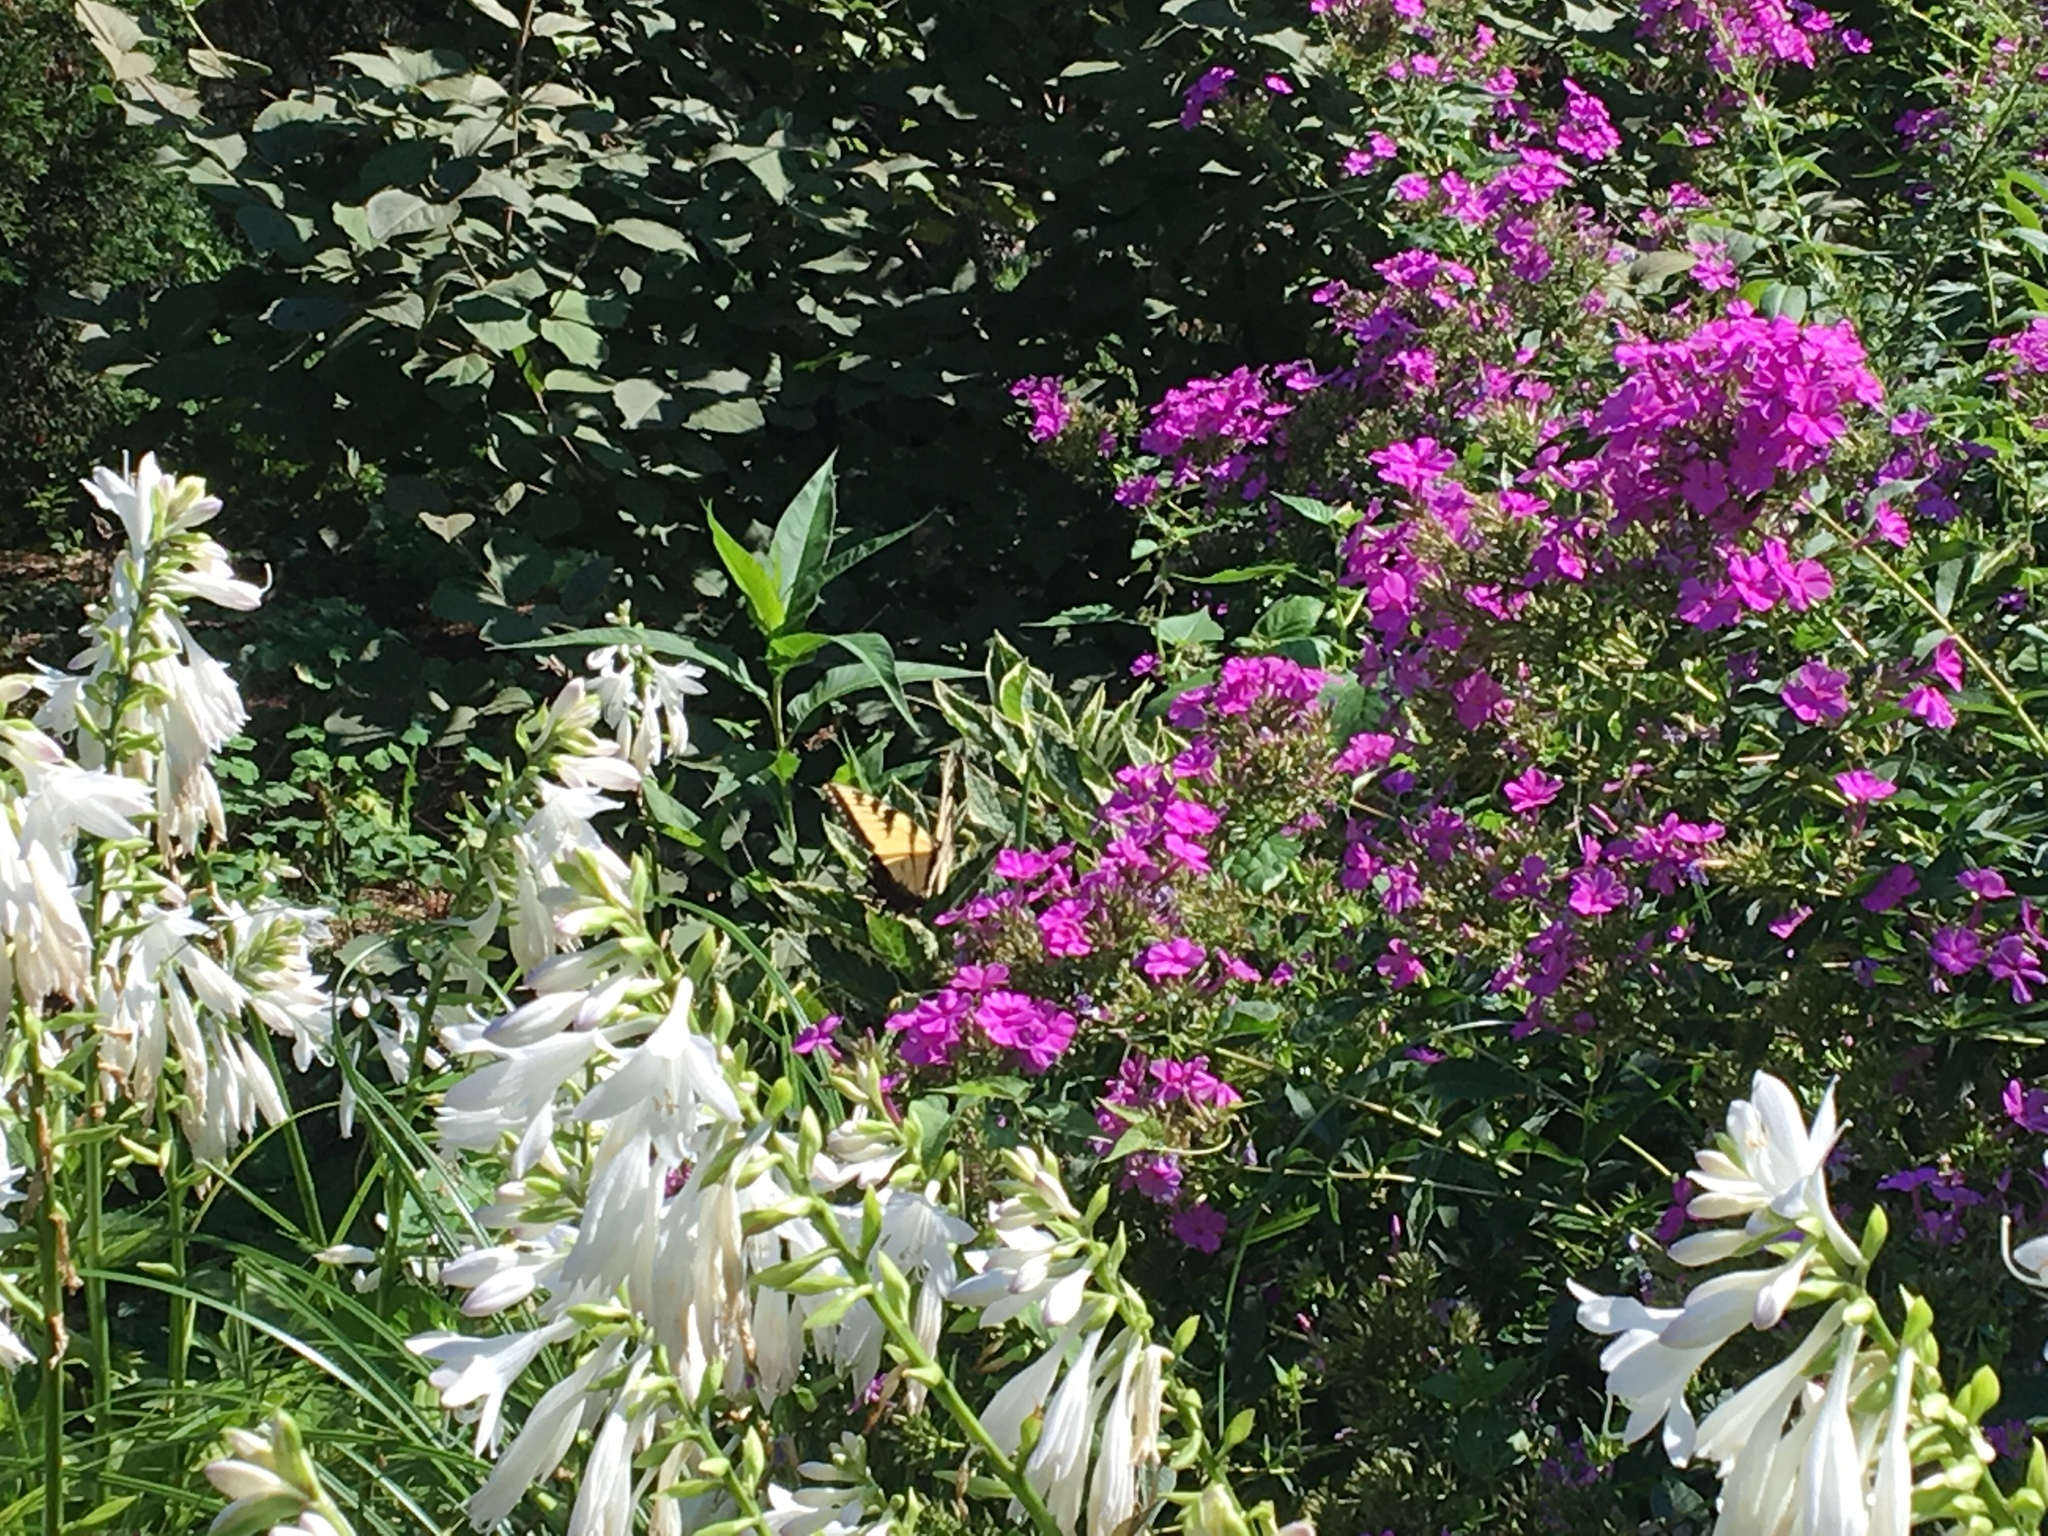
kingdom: Animalia
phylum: Arthropoda
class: Insecta
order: Lepidoptera
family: Papilionidae
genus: Papilio
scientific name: Papilio glaucus
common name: Tiger swallowtail
